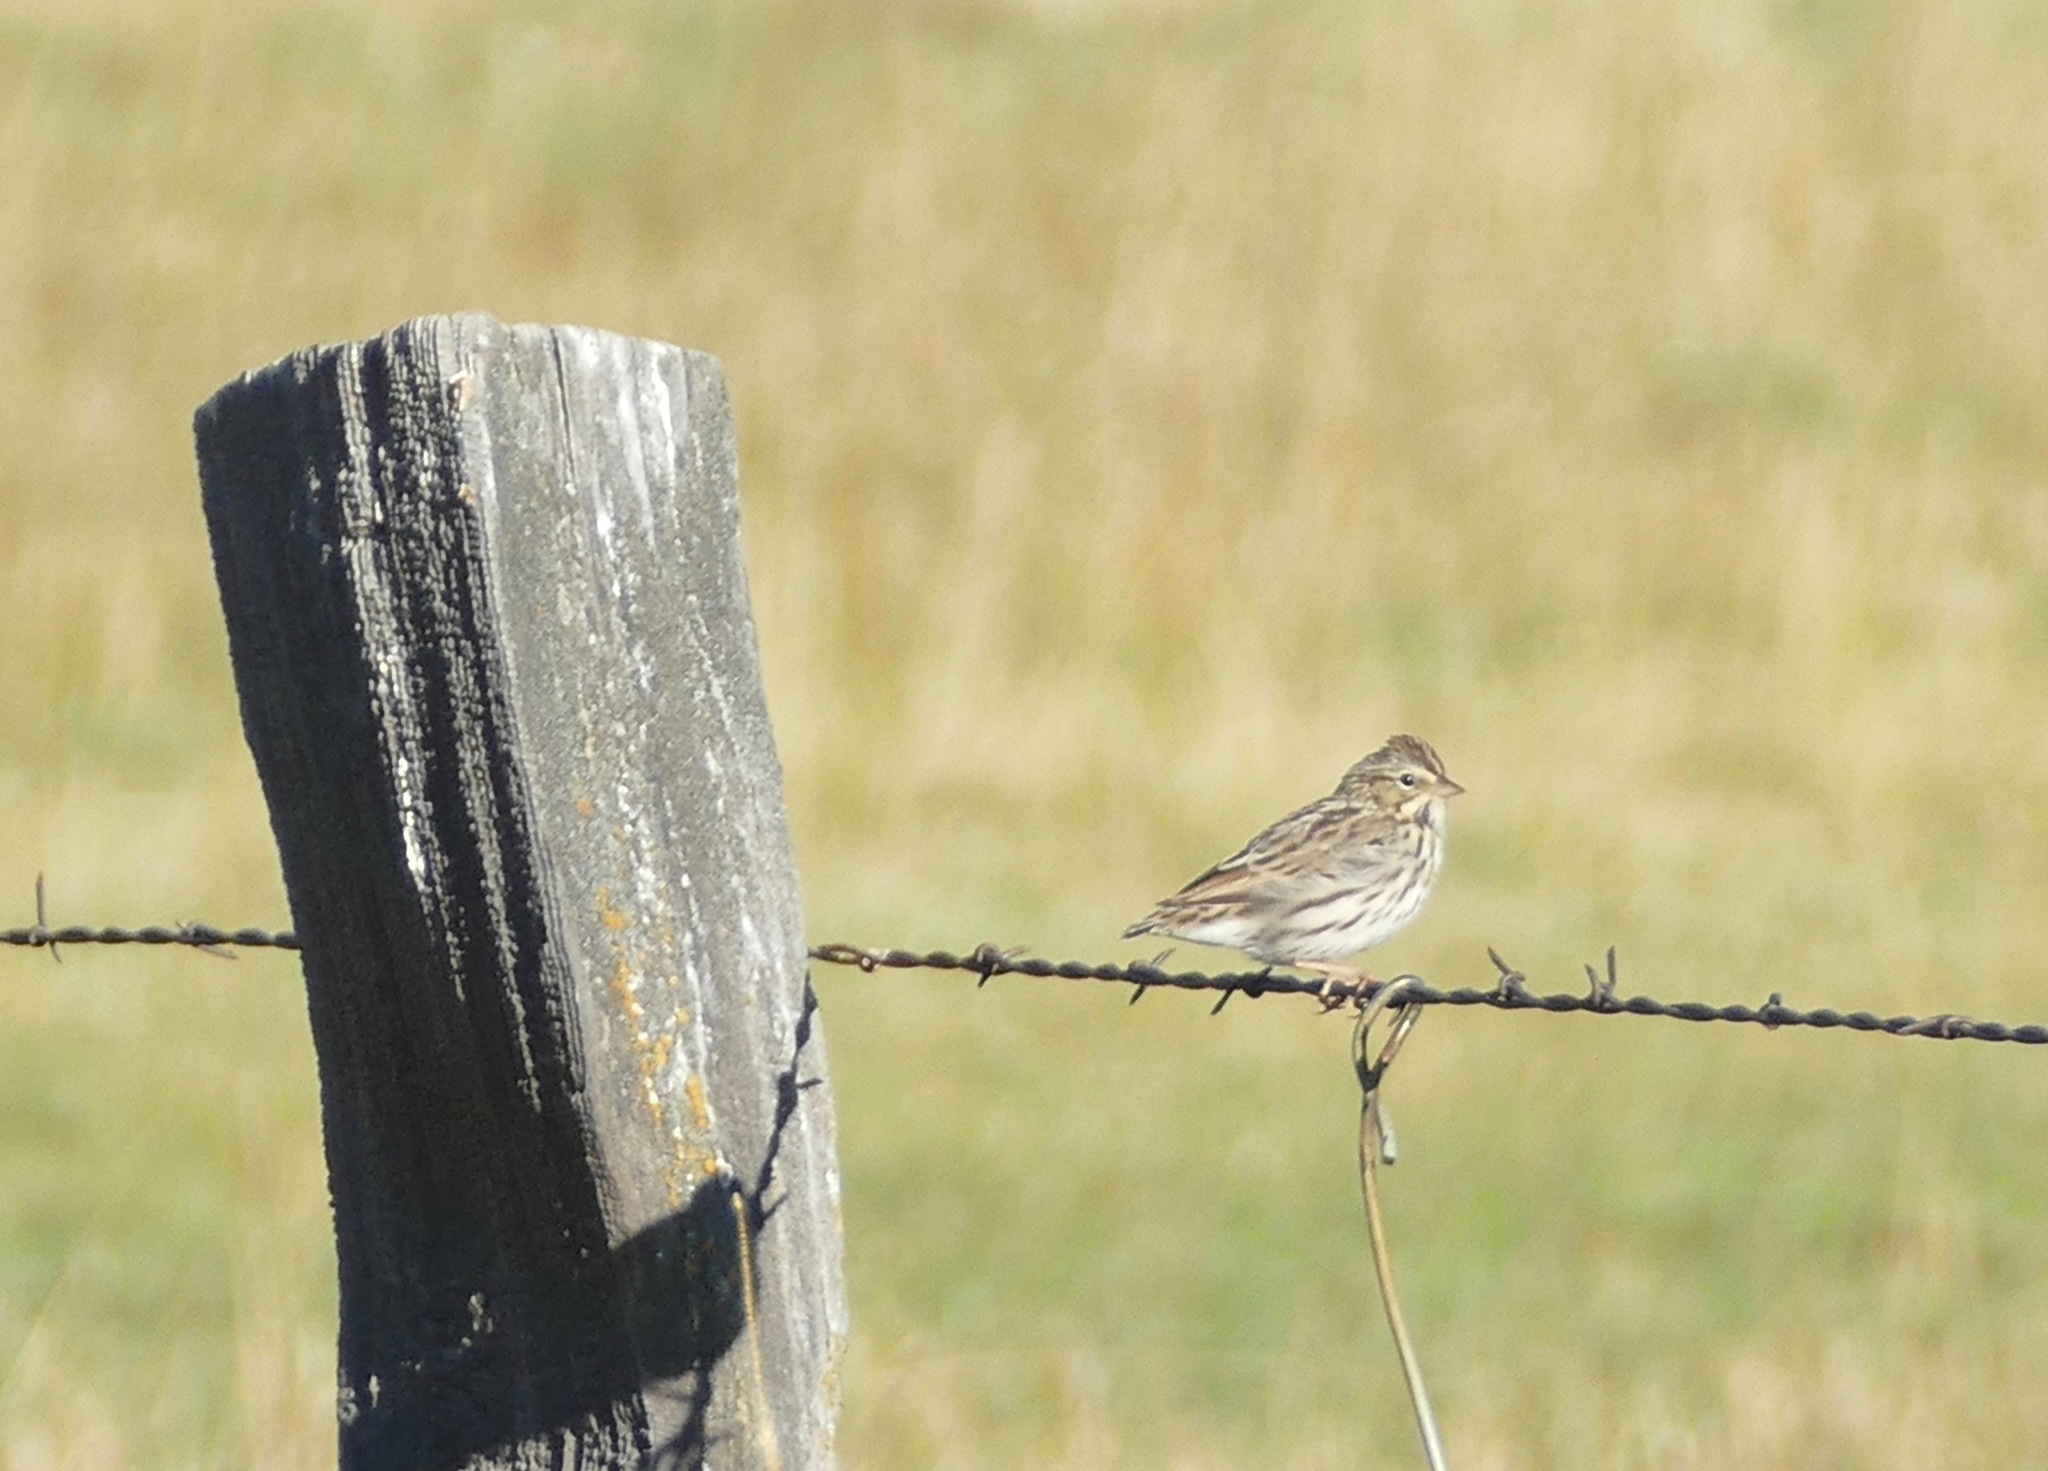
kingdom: Animalia
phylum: Chordata
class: Aves
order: Passeriformes
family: Passerellidae
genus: Passerculus
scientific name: Passerculus sandwichensis
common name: Savannah sparrow
